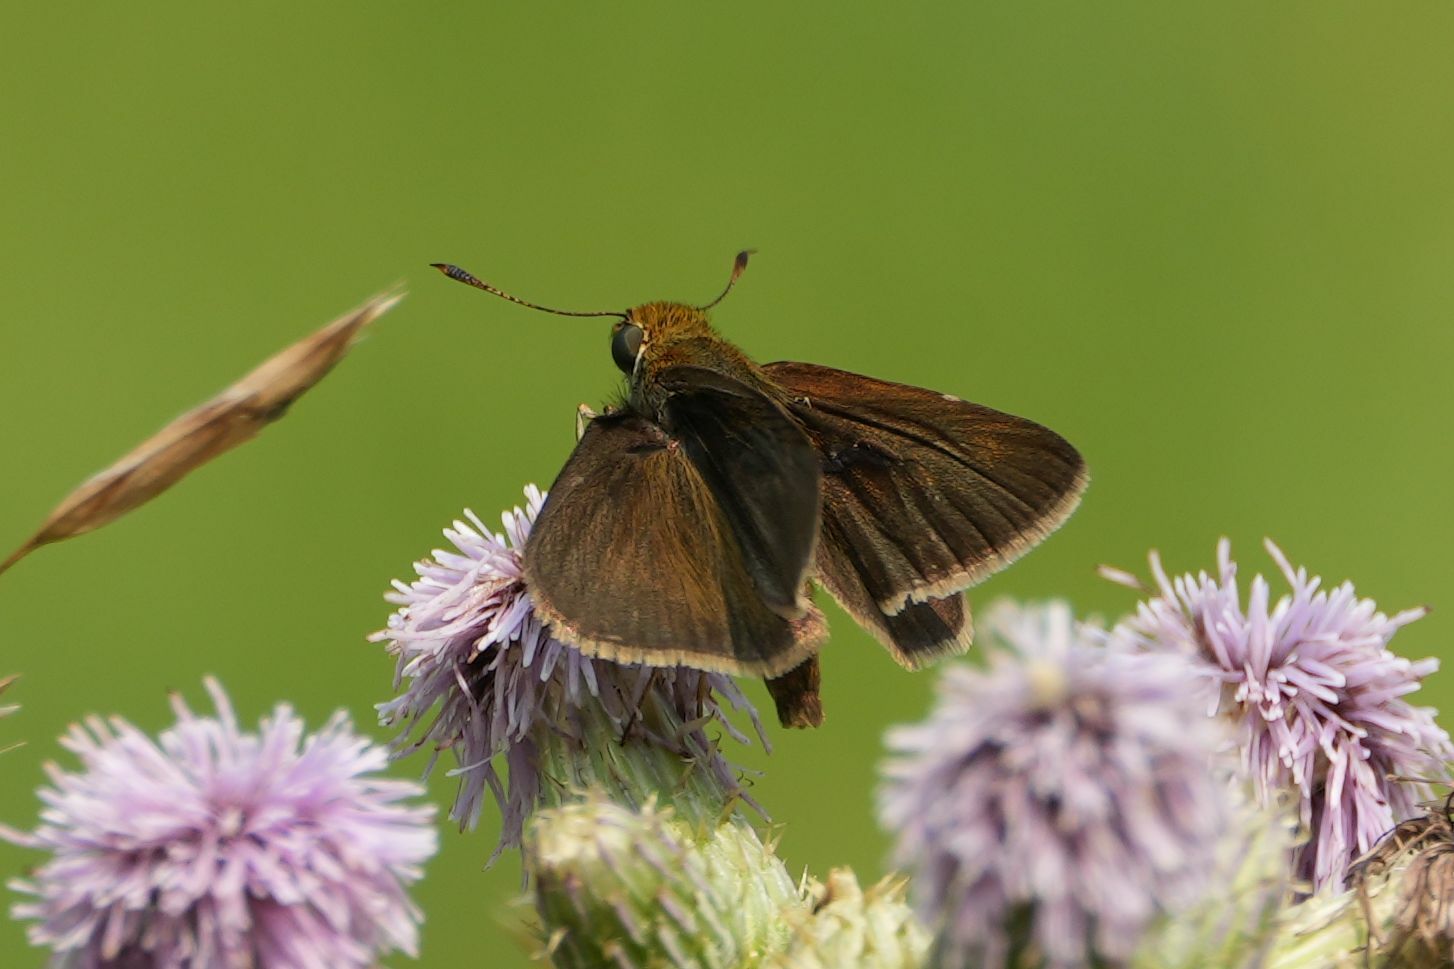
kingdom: Animalia
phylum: Arthropoda
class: Insecta
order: Lepidoptera
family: Hesperiidae
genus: Euphyes
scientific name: Euphyes vestris
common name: Dun skipper
